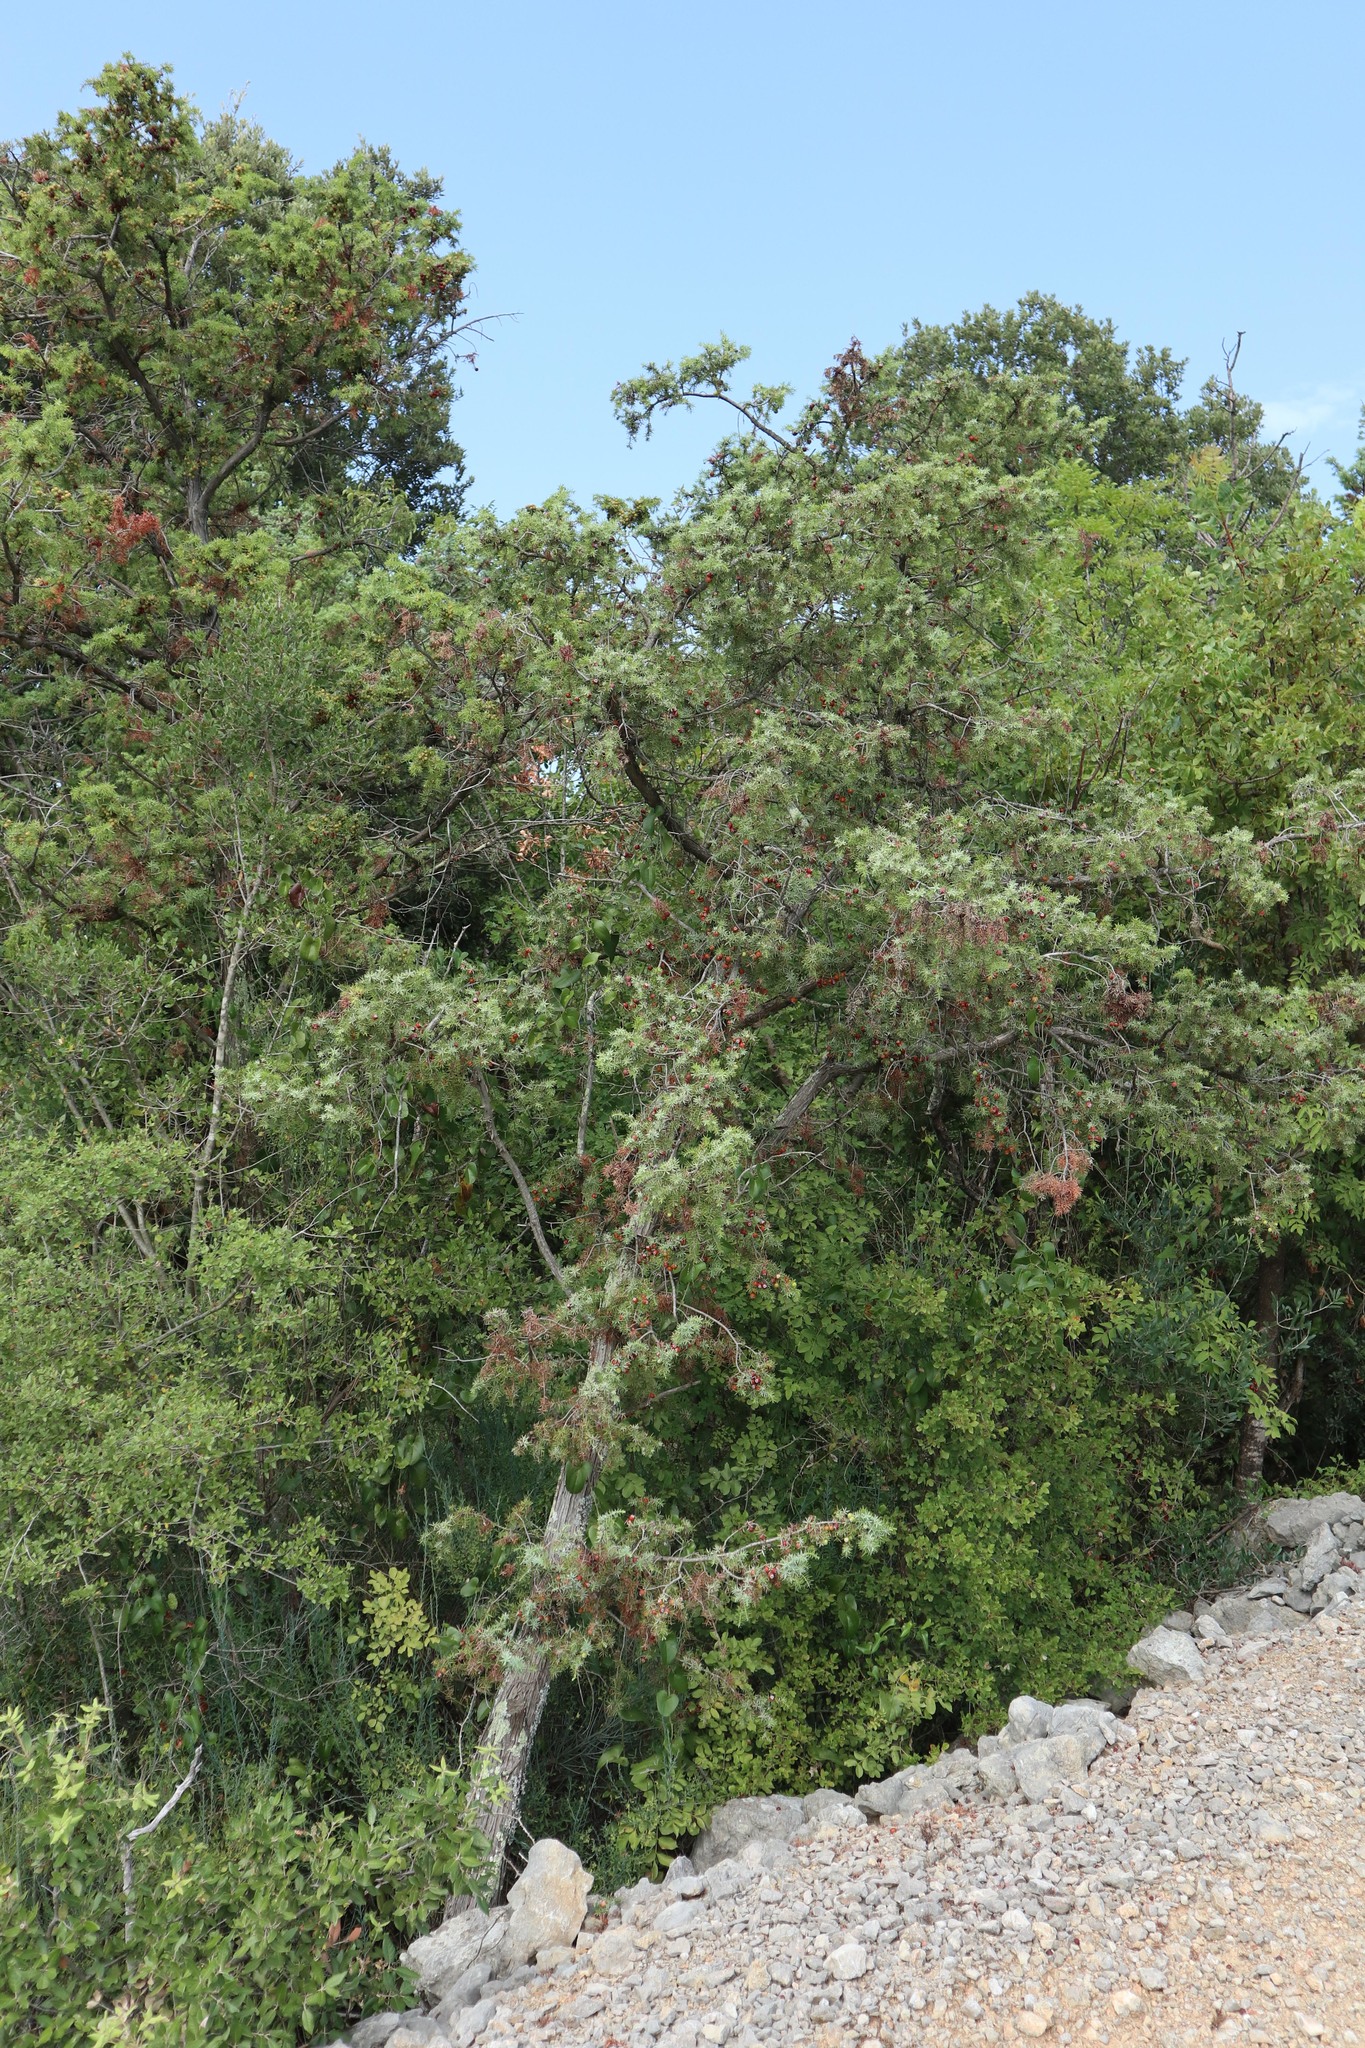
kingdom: Plantae
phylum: Tracheophyta
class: Pinopsida
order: Pinales
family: Cupressaceae
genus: Juniperus
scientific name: Juniperus oxycedrus
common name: Prickly juniper
